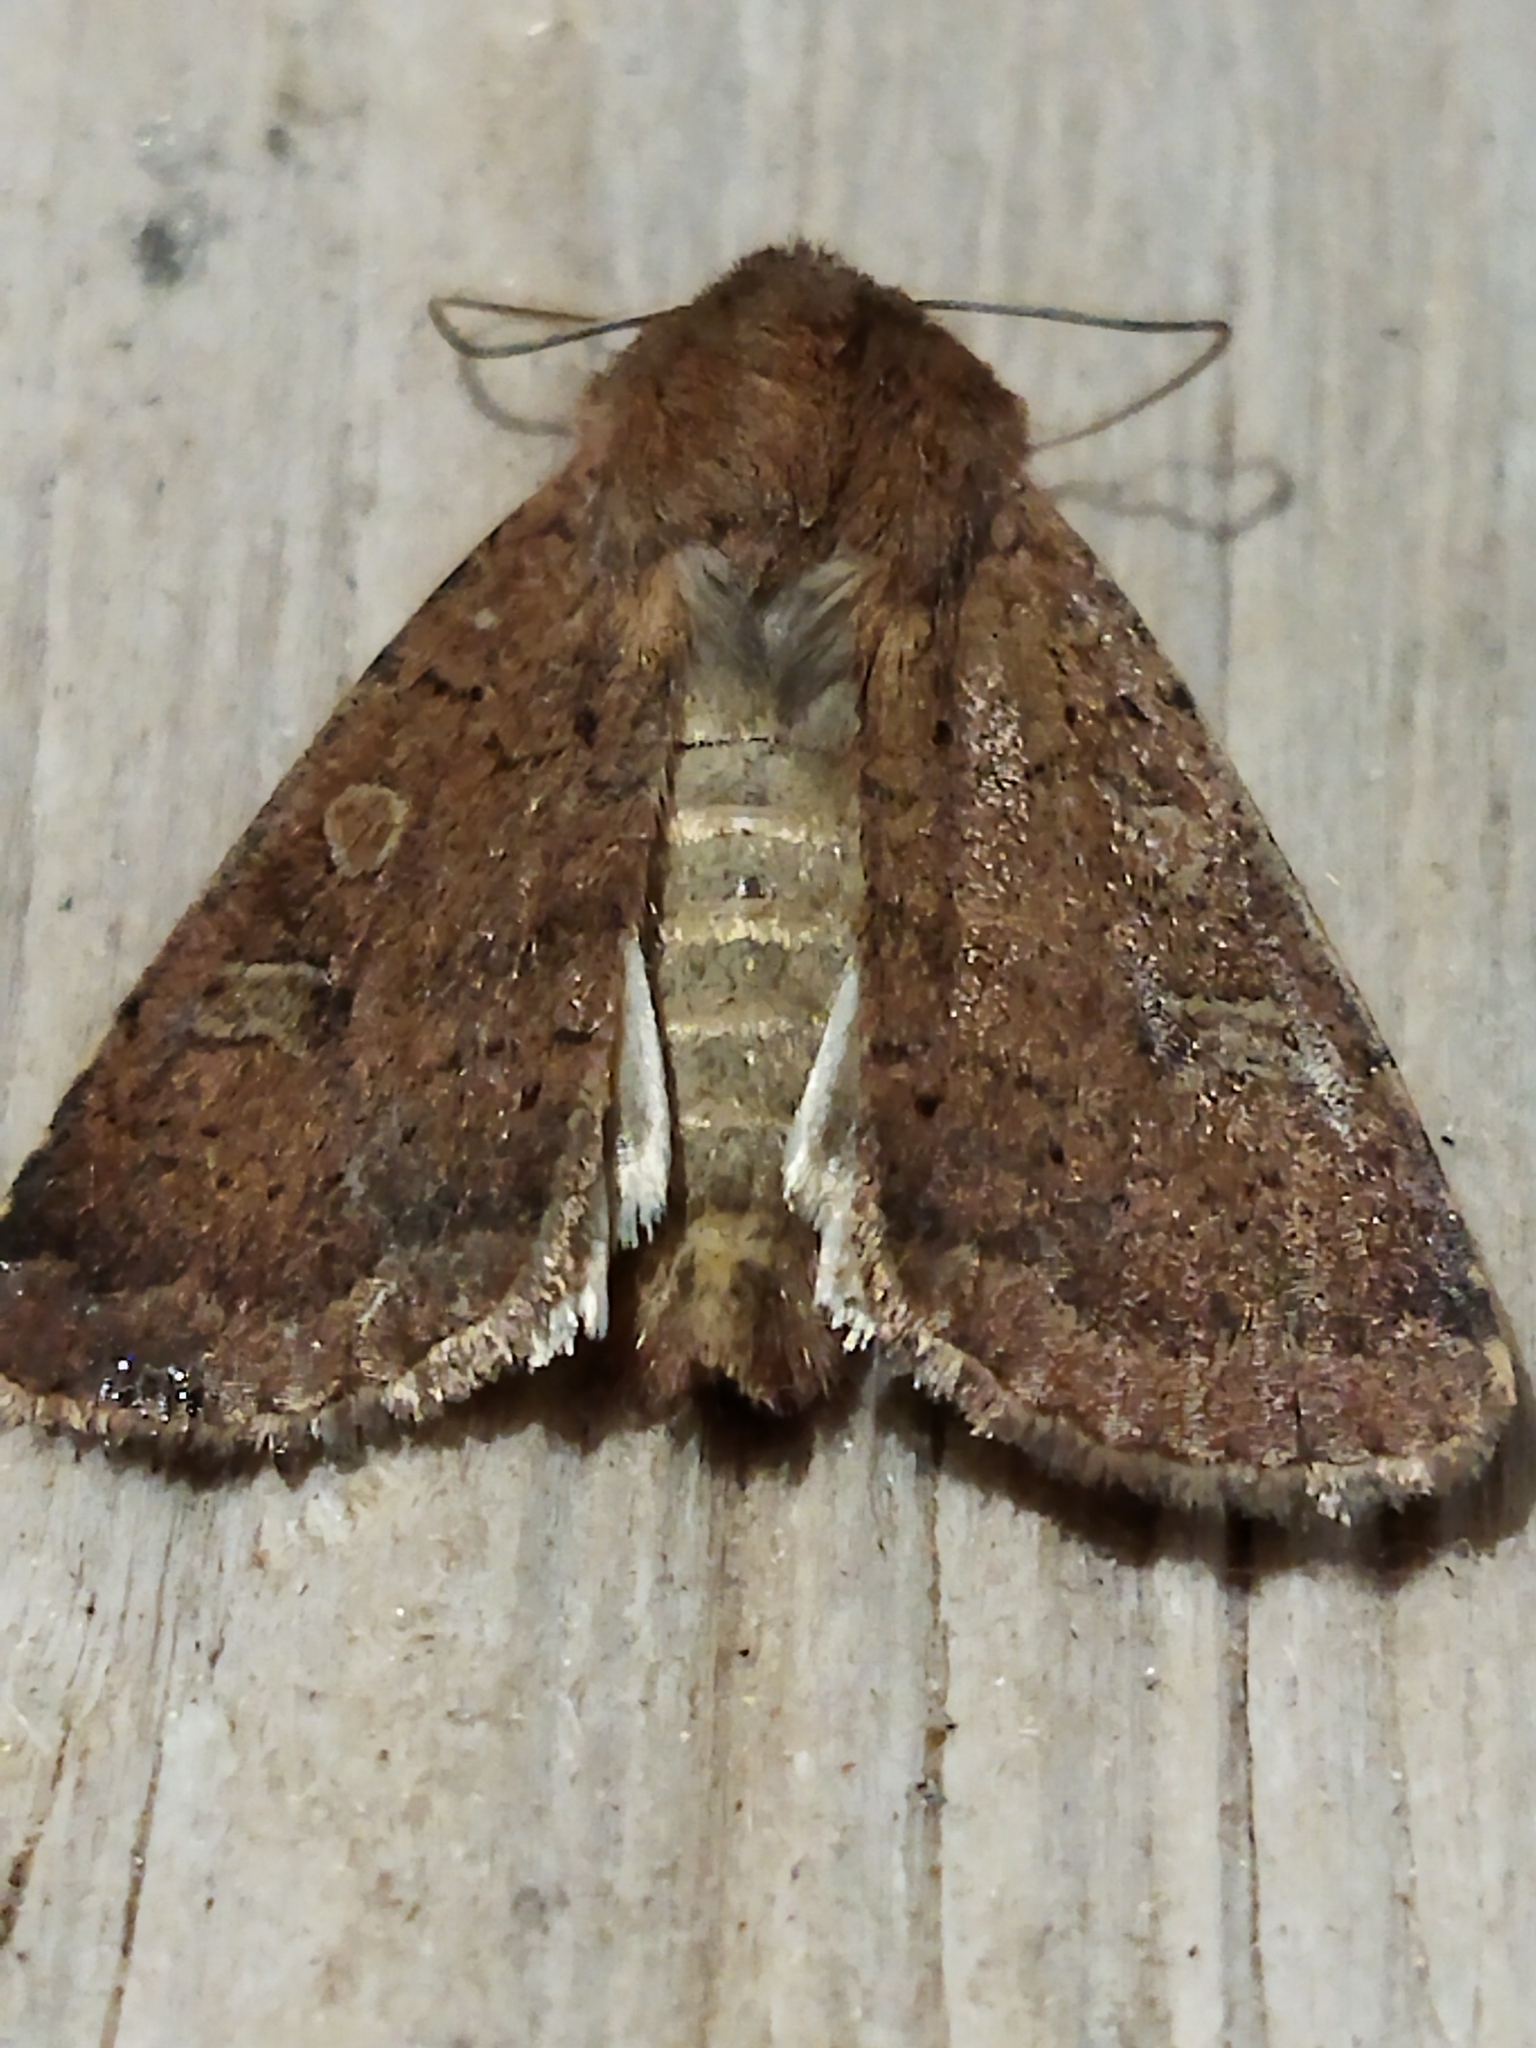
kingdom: Animalia
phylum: Arthropoda
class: Insecta
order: Lepidoptera
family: Noctuidae
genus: Xestia
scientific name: Xestia xanthographa
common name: Square-spot rustic
